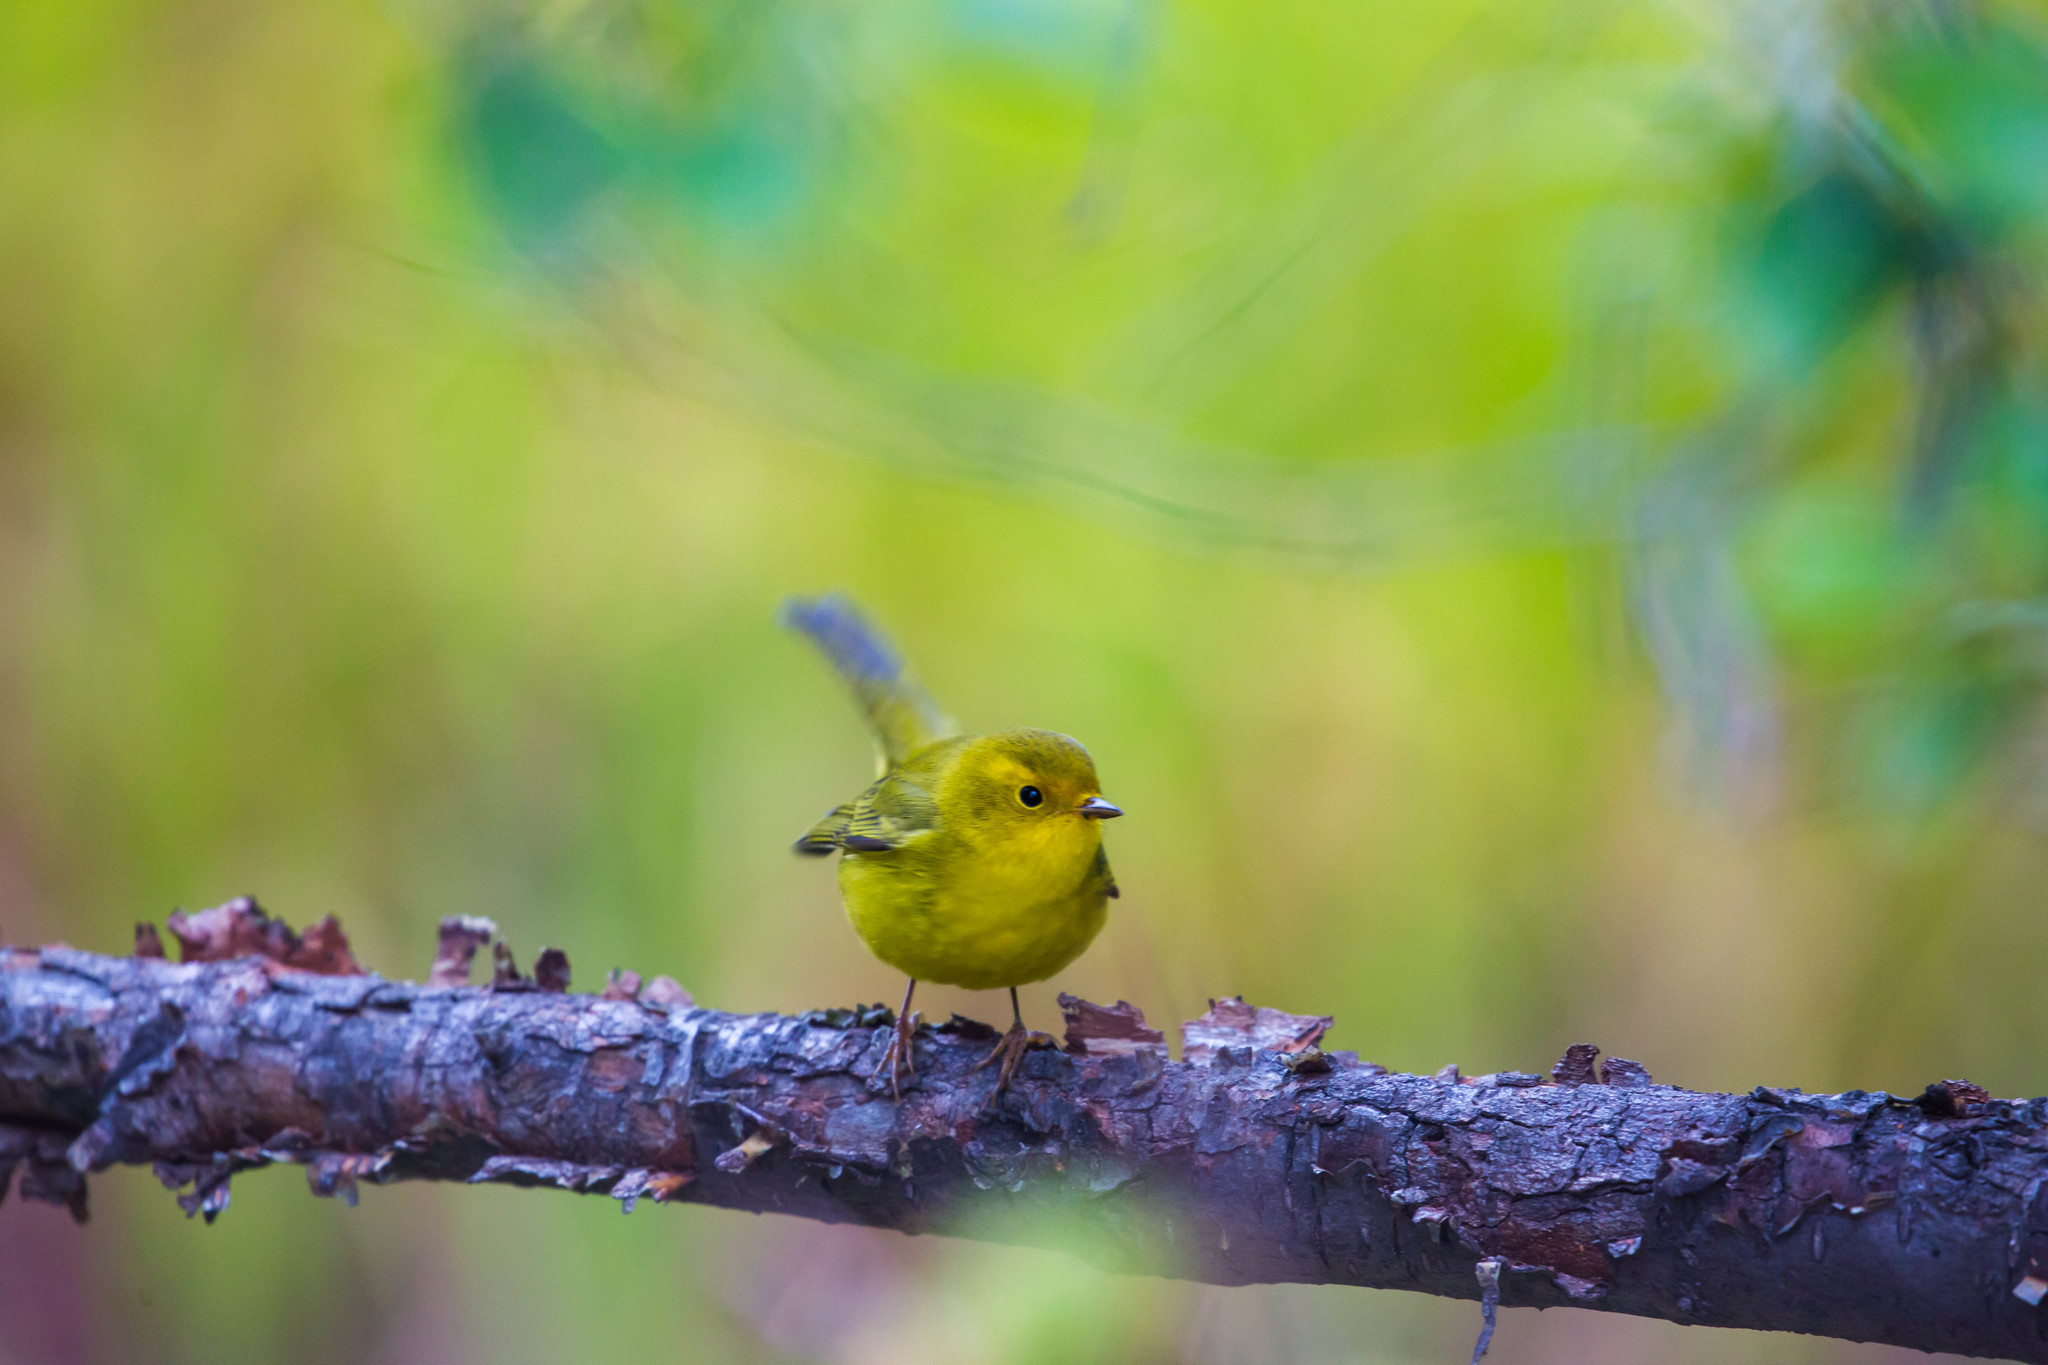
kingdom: Animalia
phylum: Chordata
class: Aves
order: Passeriformes
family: Parulidae
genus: Cardellina
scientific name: Cardellina pusilla
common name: Wilson's warbler
